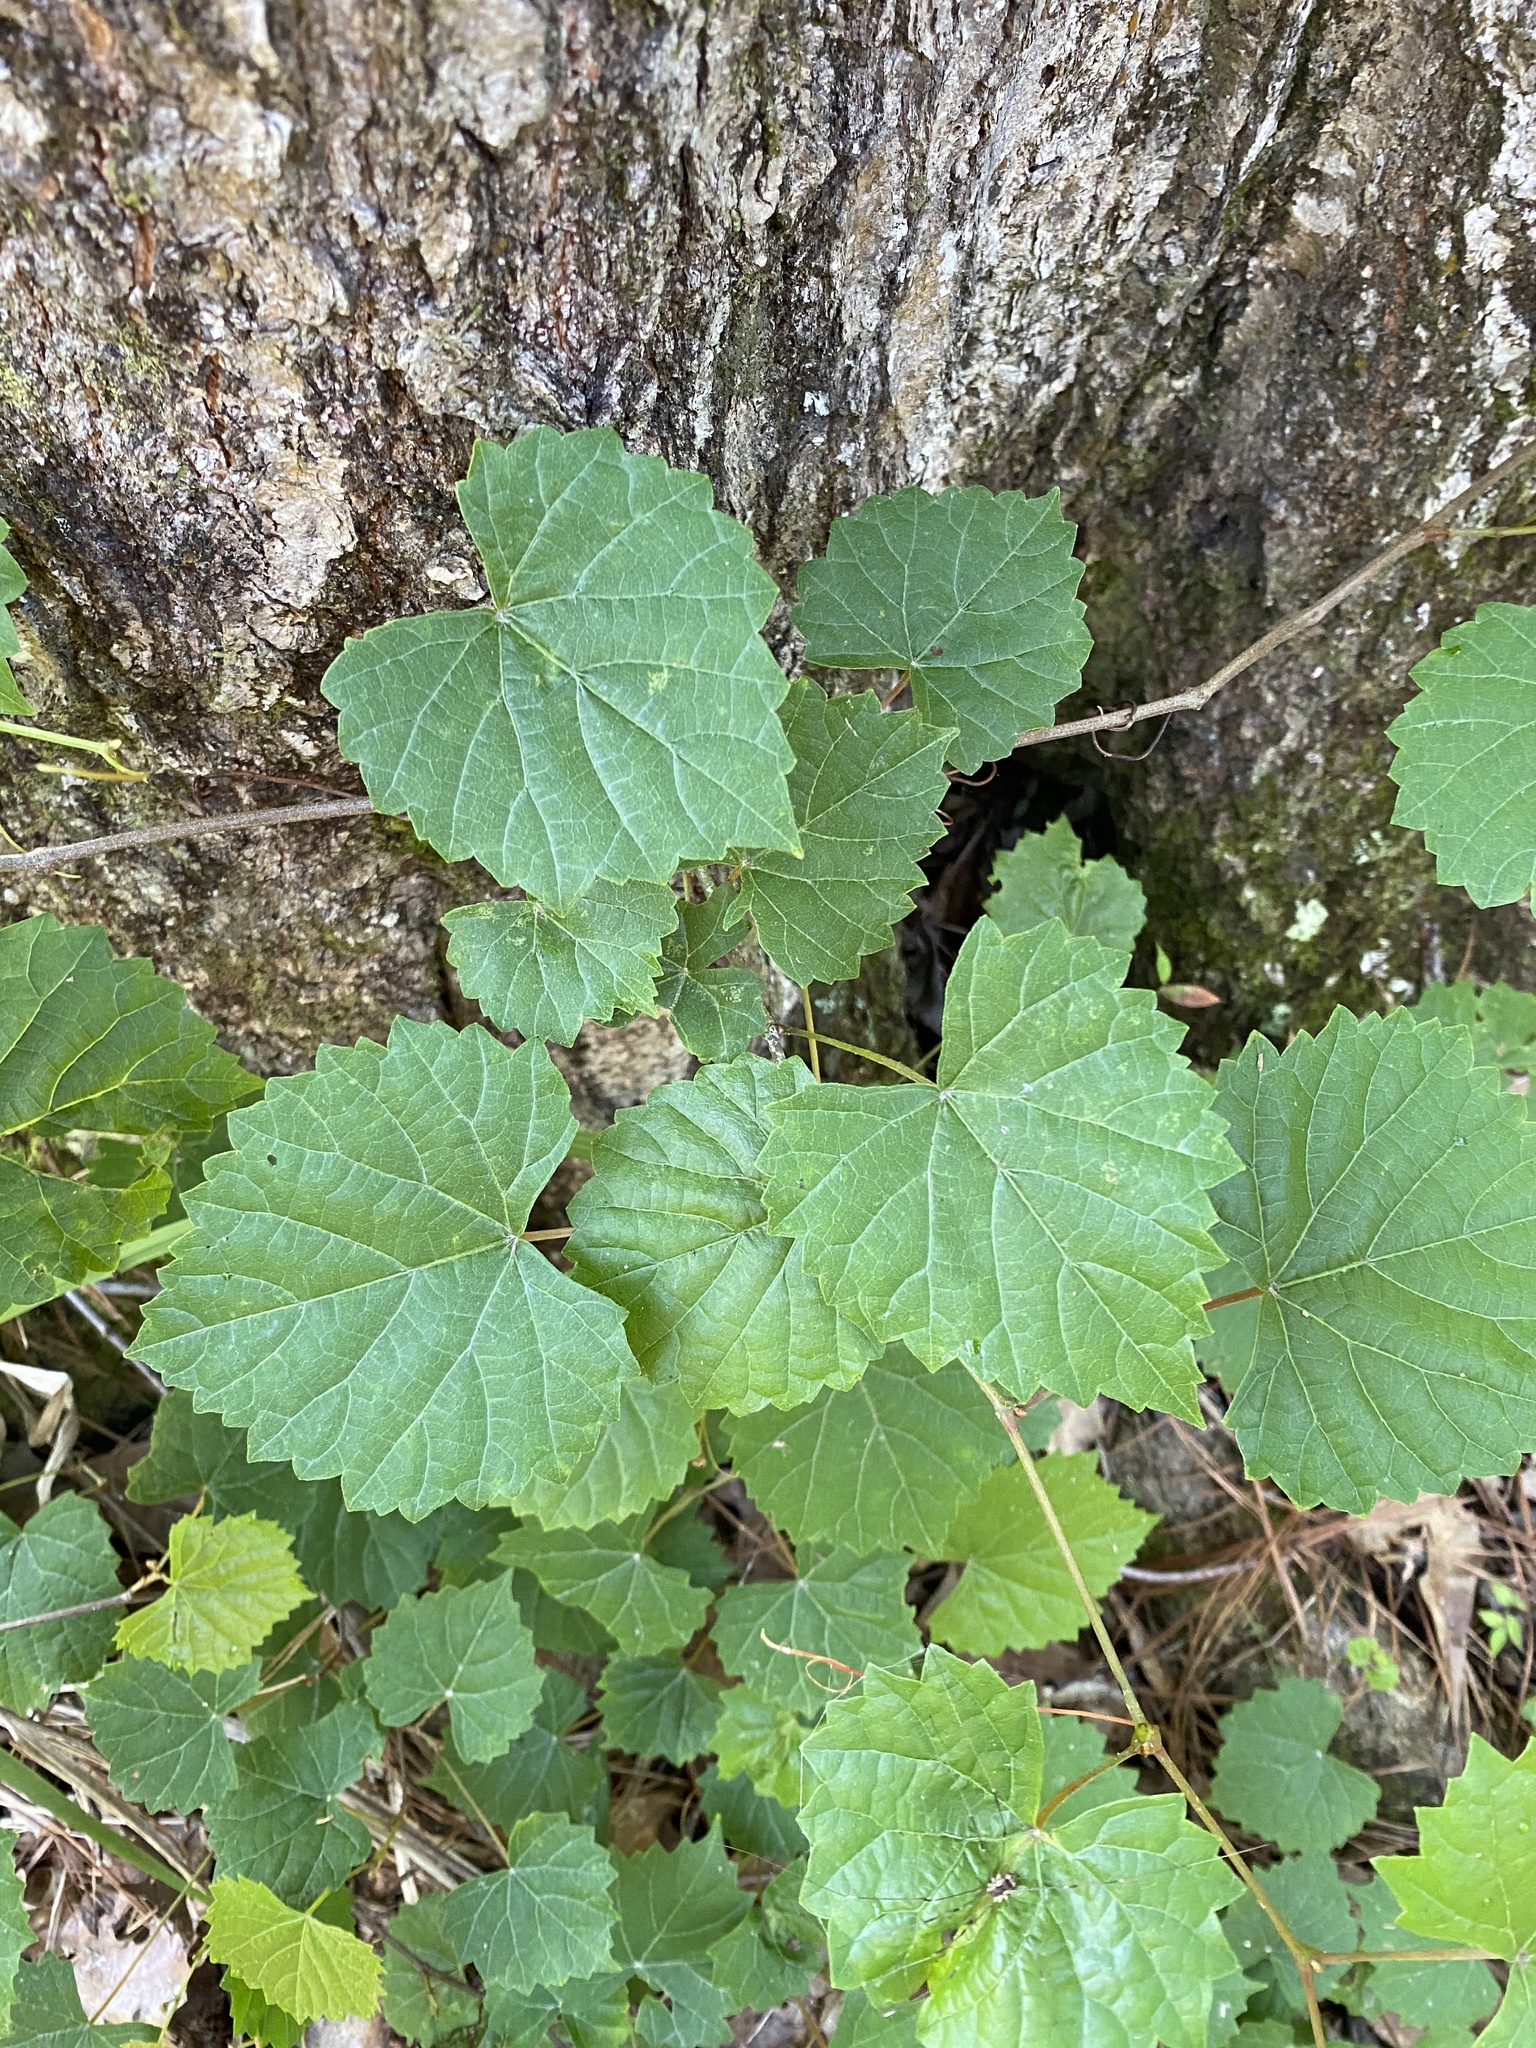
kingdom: Plantae
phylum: Tracheophyta
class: Magnoliopsida
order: Vitales
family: Vitaceae
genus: Vitis
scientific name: Vitis rotundifolia
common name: Muscadine grape
